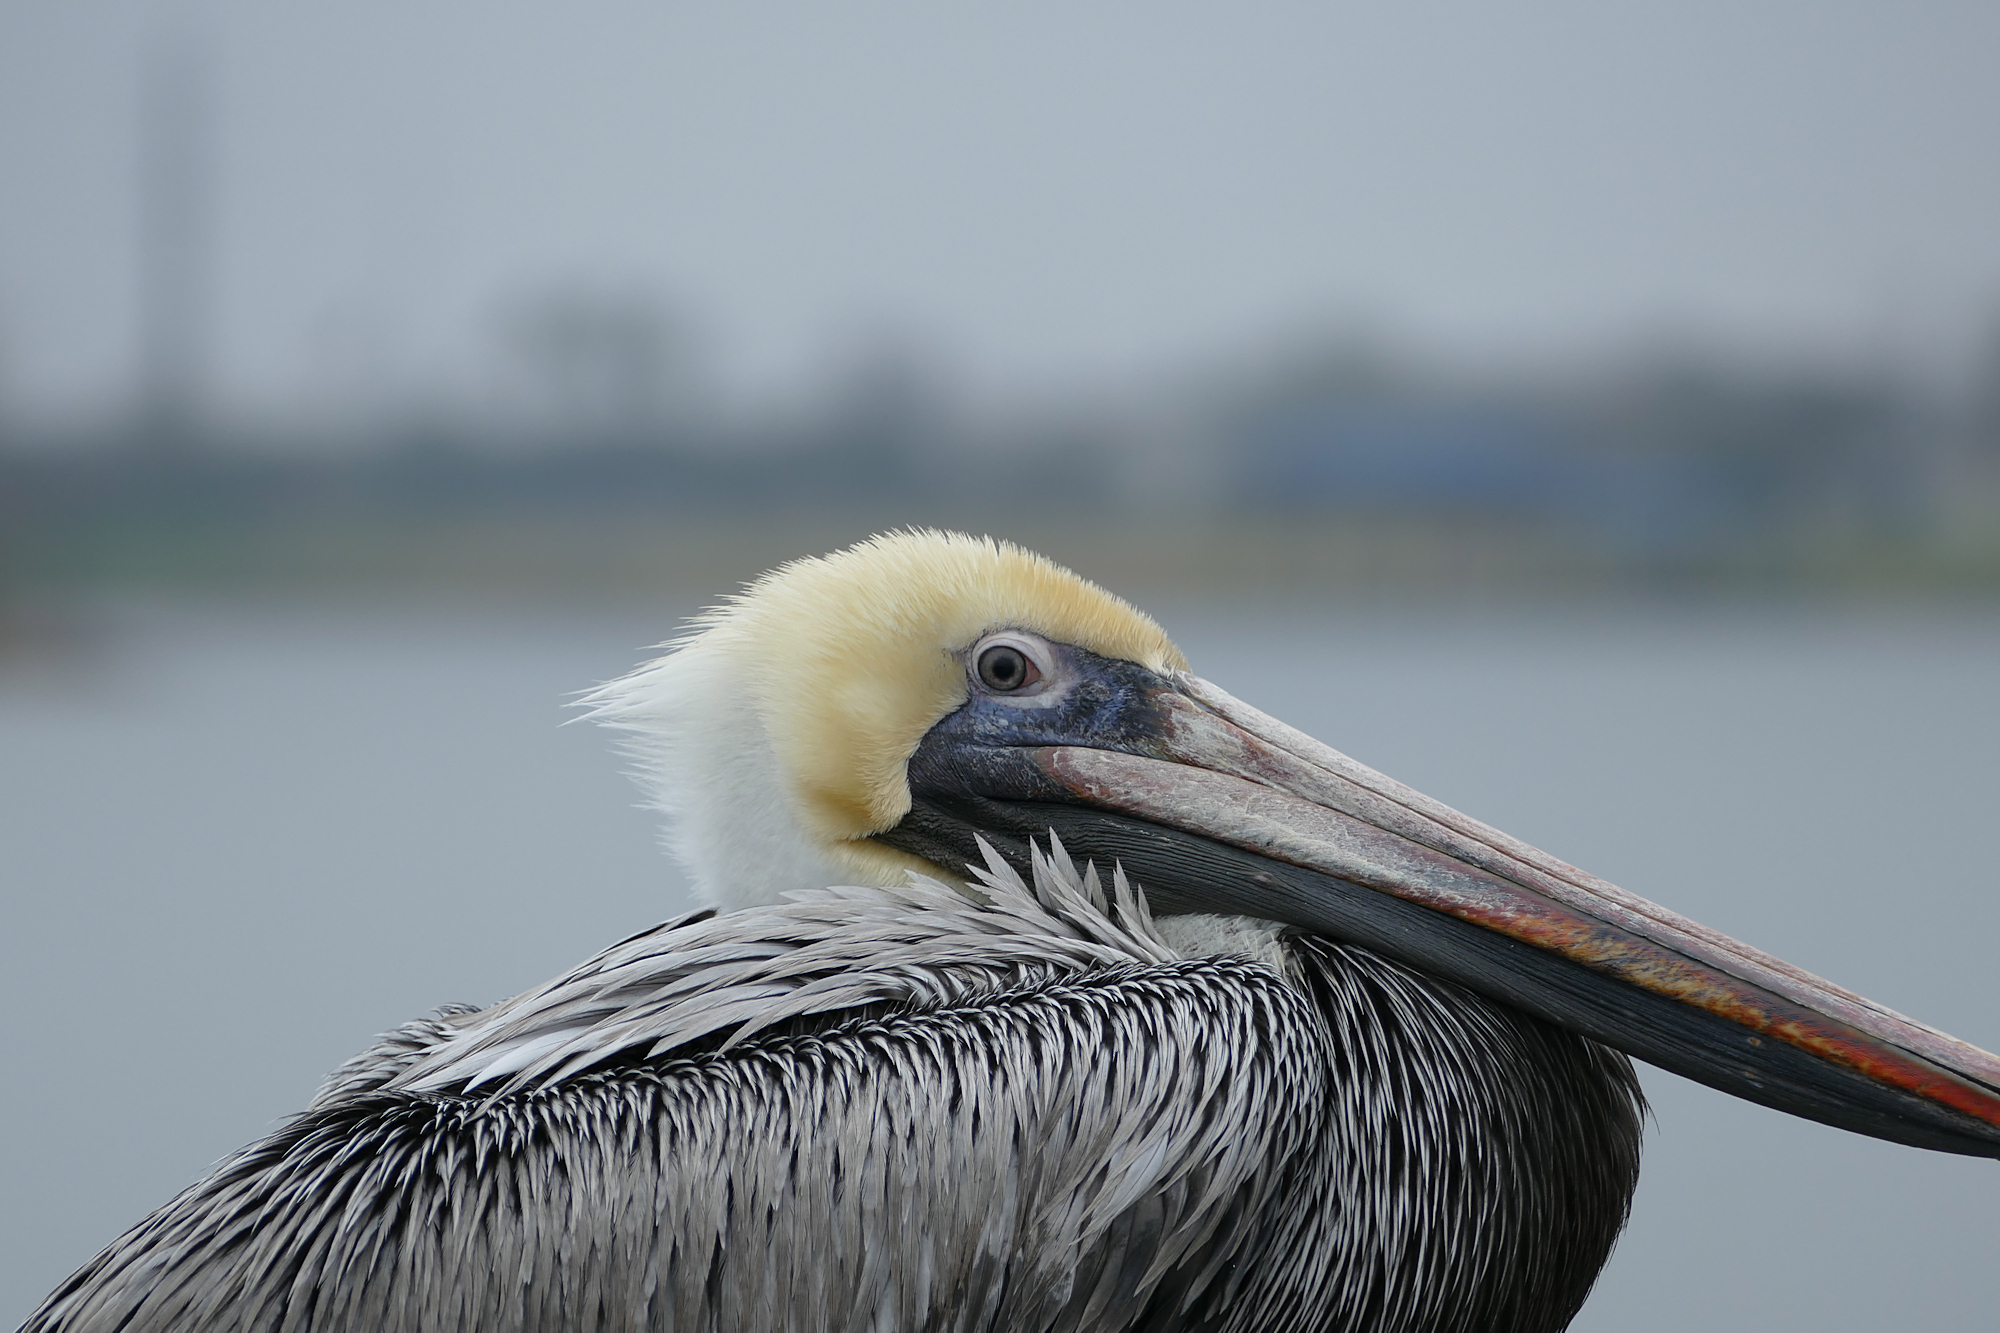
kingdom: Animalia
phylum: Chordata
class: Aves
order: Pelecaniformes
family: Pelecanidae
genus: Pelecanus
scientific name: Pelecanus occidentalis
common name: Brown pelican
